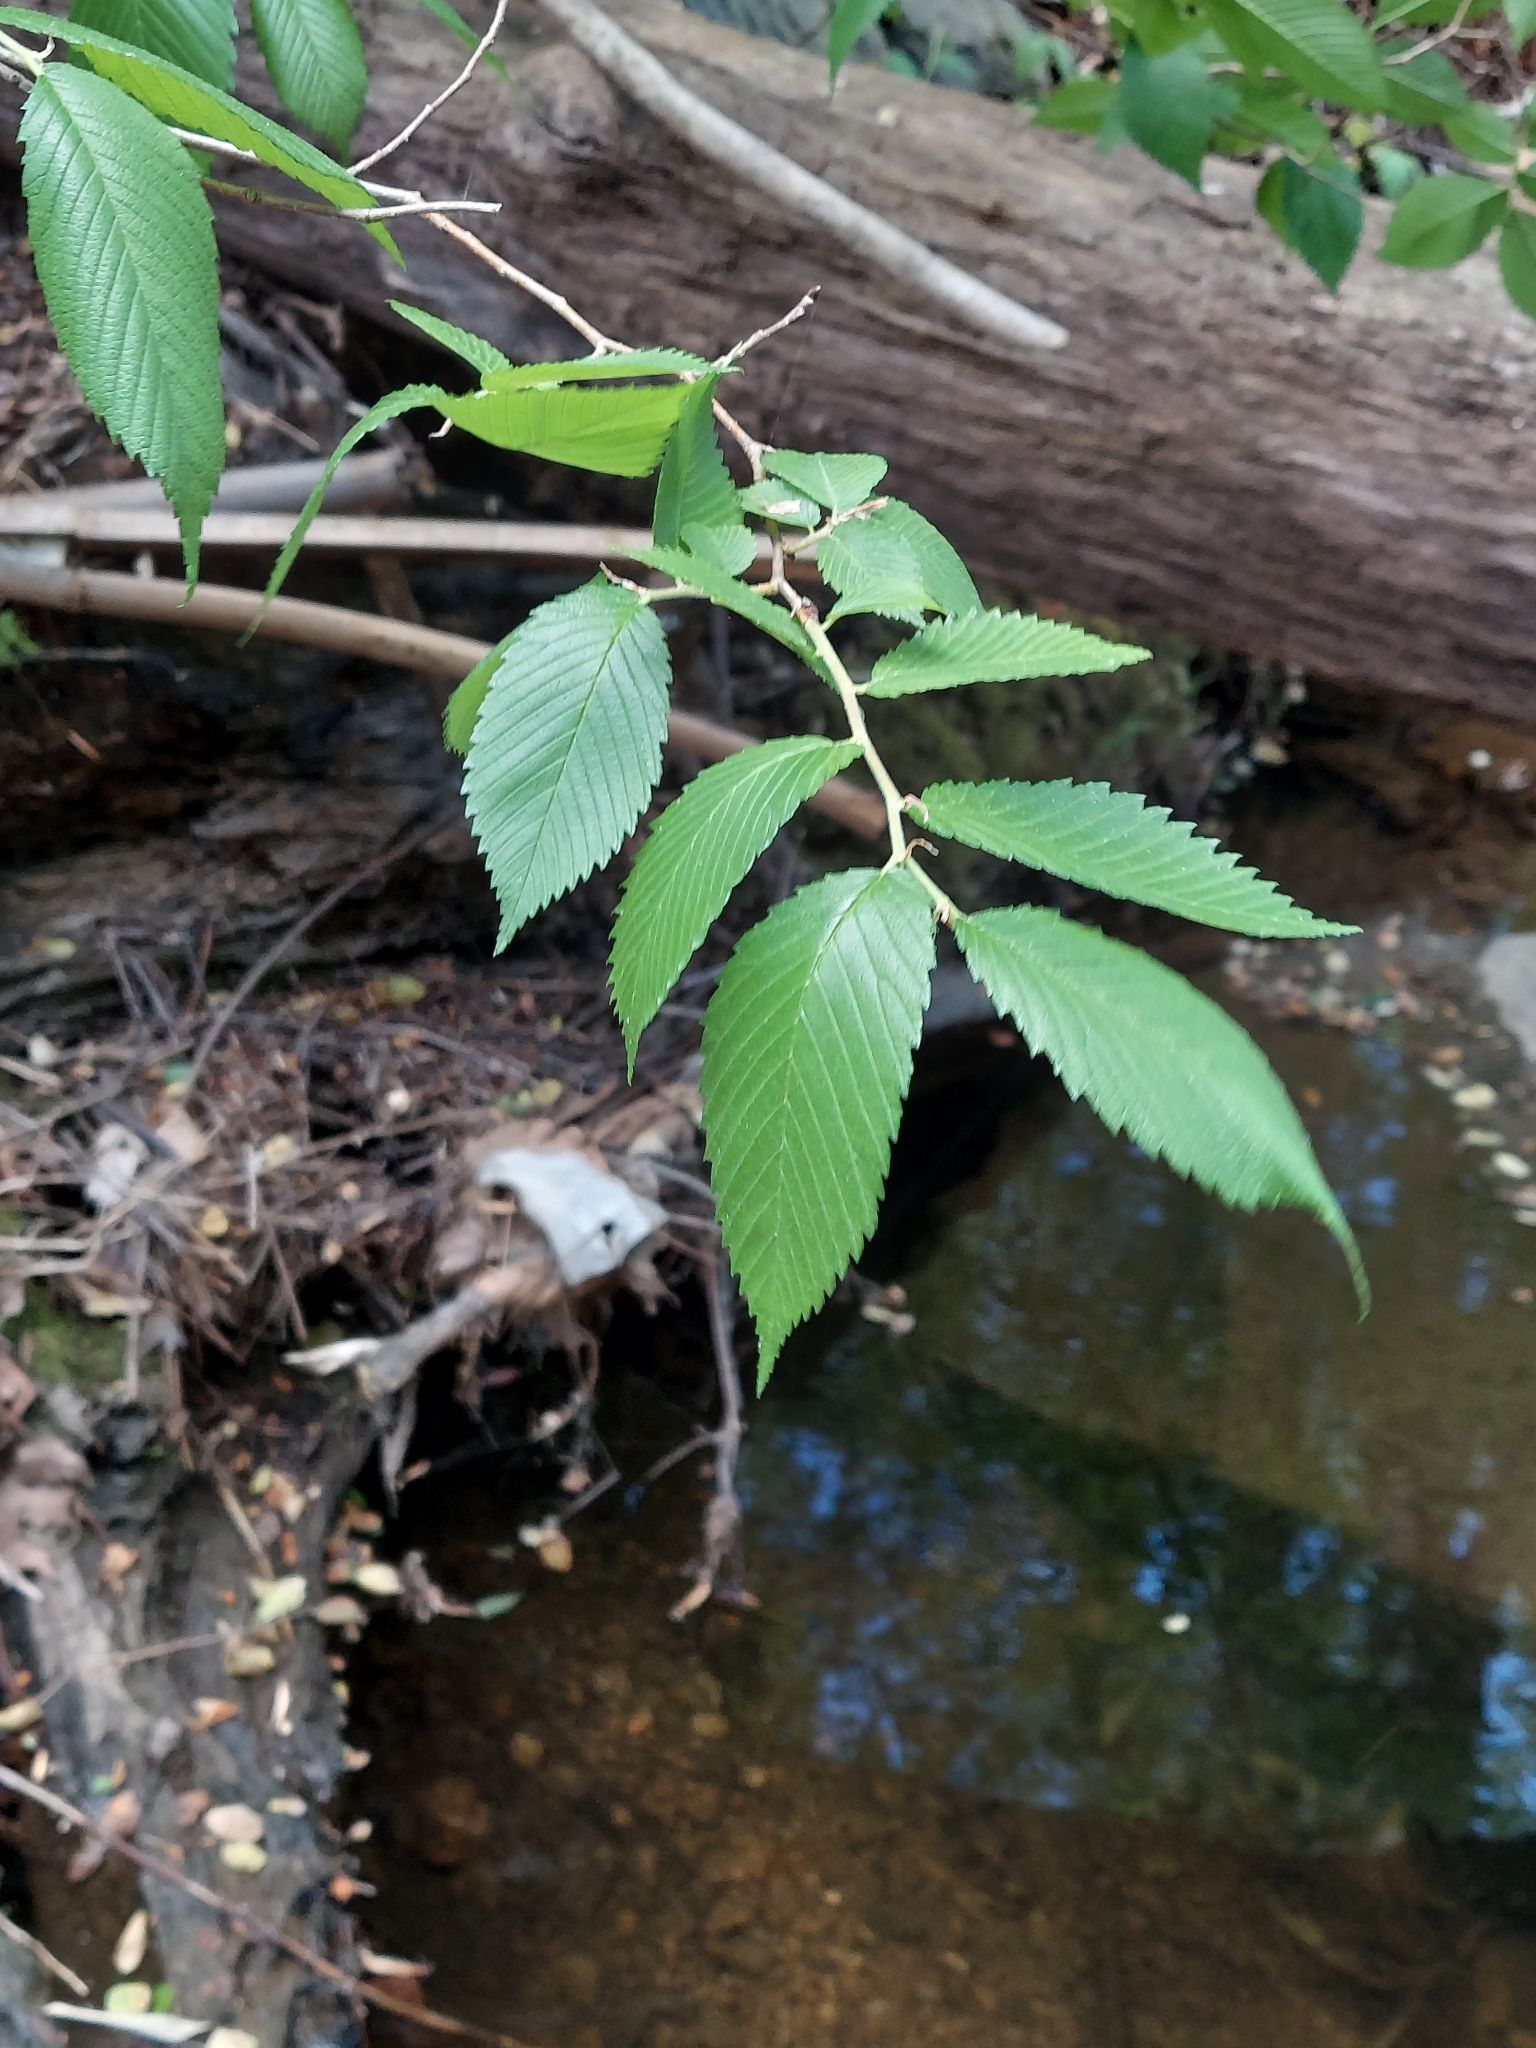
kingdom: Plantae
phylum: Tracheophyta
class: Magnoliopsida
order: Rosales
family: Ulmaceae
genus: Ulmus
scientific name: Ulmus americana
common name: American elm
